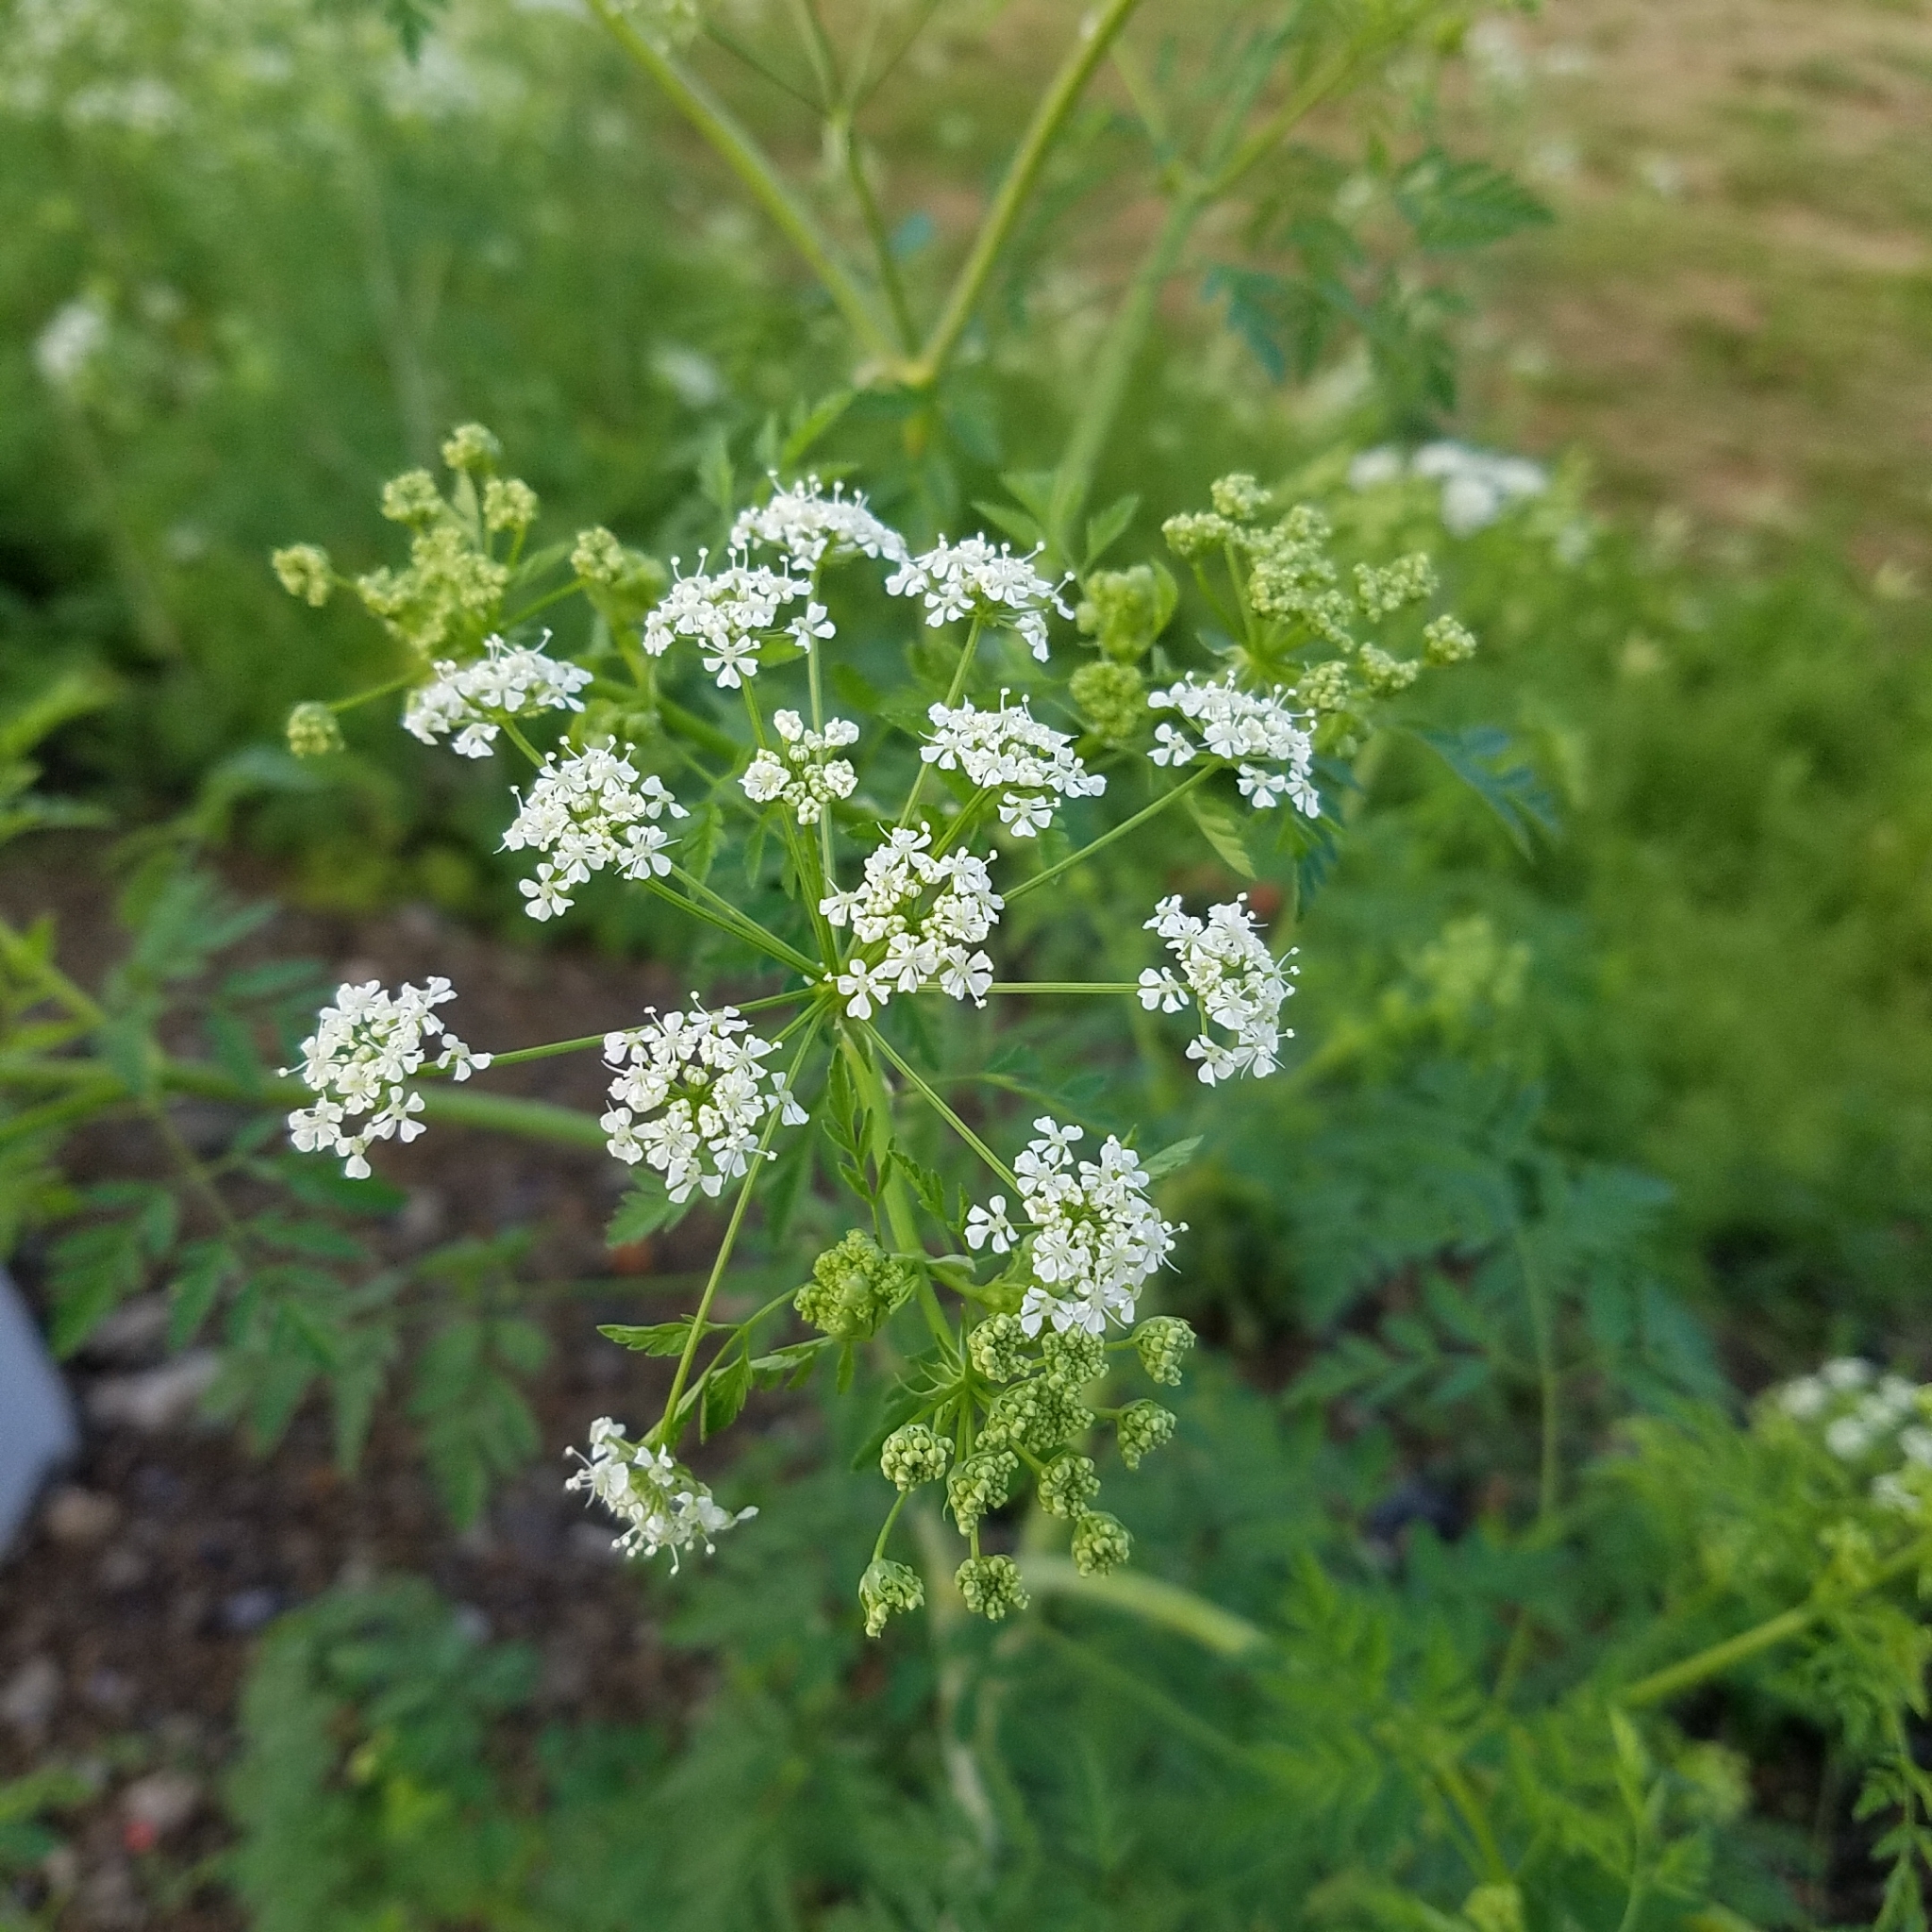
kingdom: Plantae
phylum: Tracheophyta
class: Magnoliopsida
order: Apiales
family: Apiaceae
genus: Conium
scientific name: Conium maculatum
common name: Hemlock
